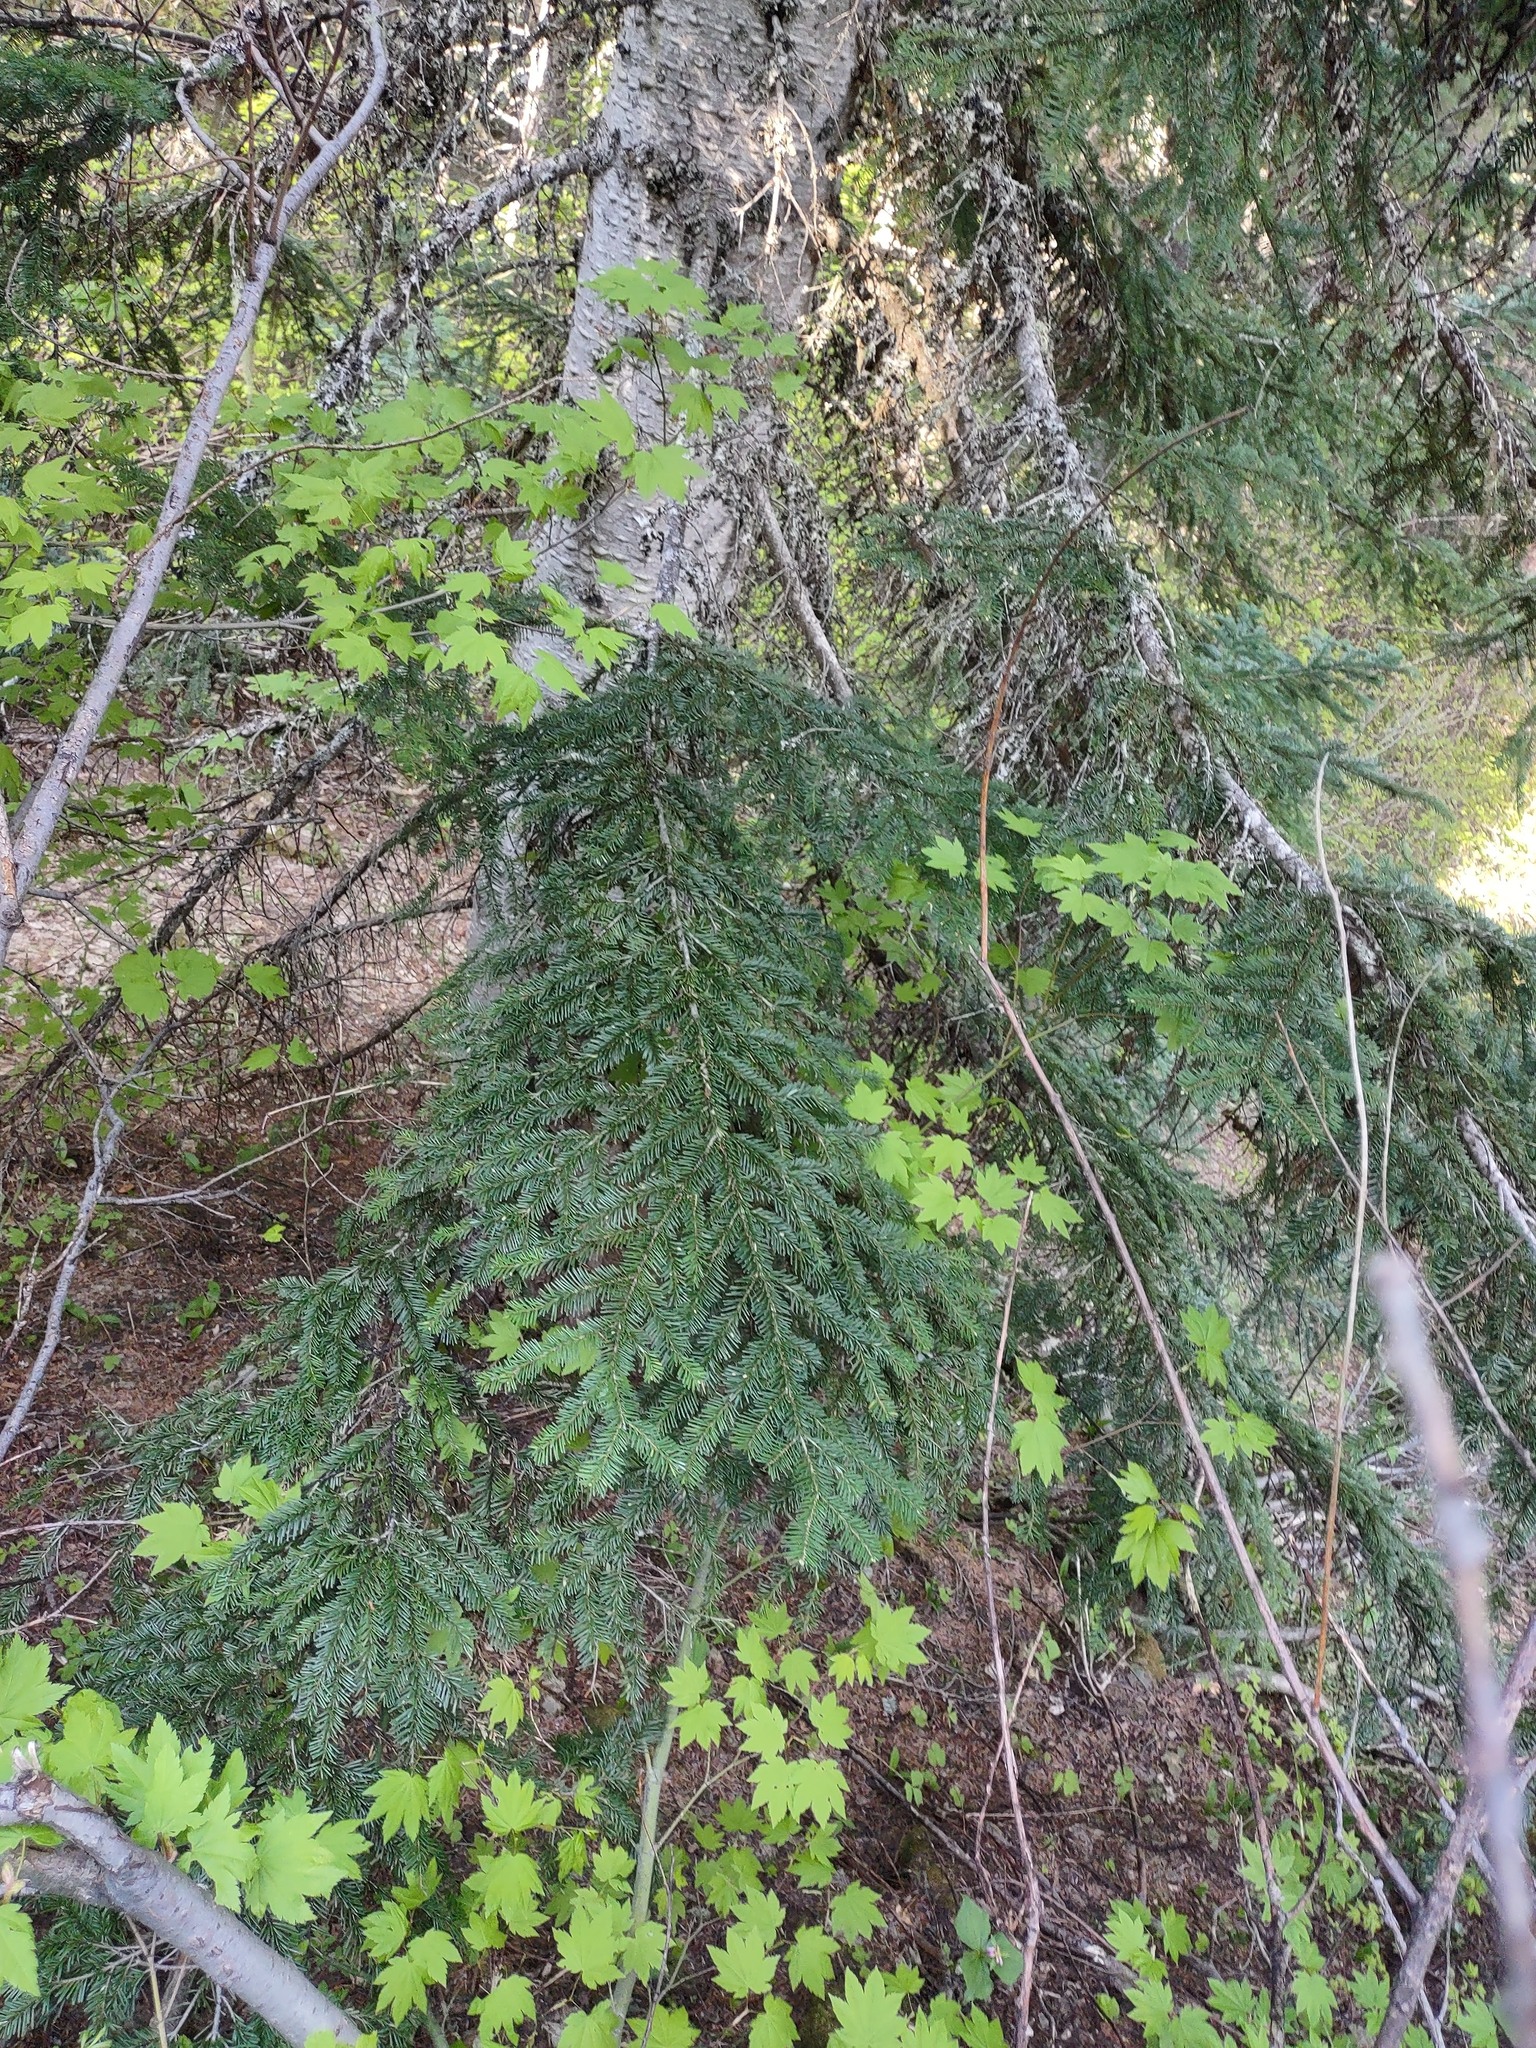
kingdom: Plantae
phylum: Tracheophyta
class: Pinopsida
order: Pinales
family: Pinaceae
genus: Abies
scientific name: Abies amabilis
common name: Pacific silver fir
